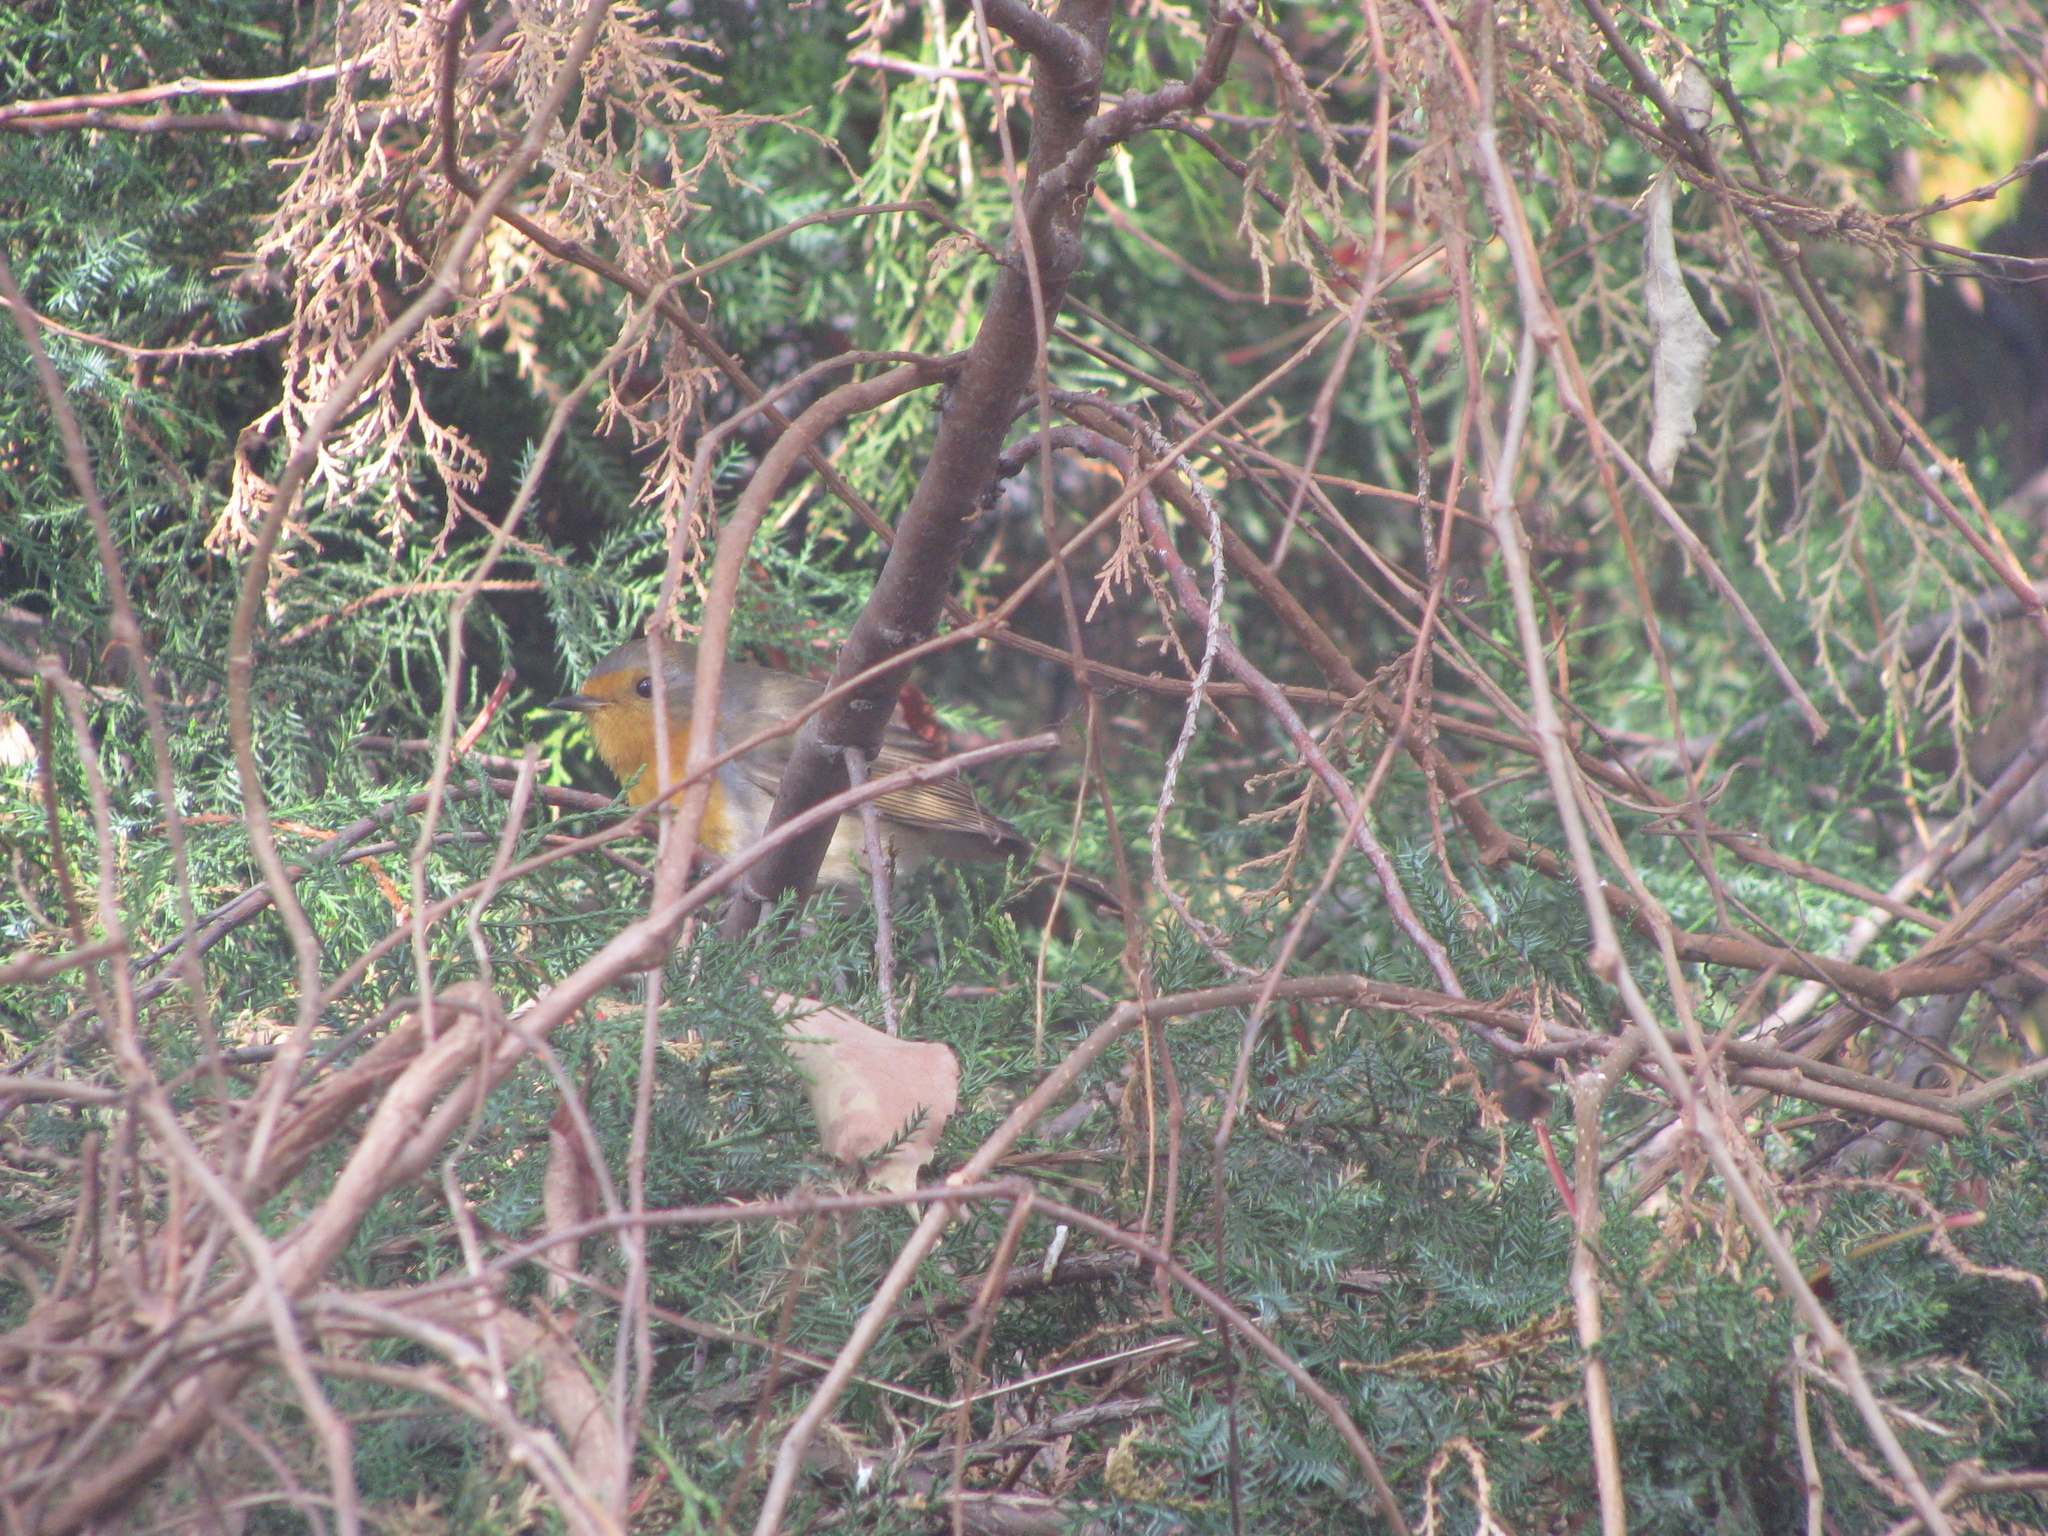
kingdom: Animalia
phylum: Chordata
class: Aves
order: Passeriformes
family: Muscicapidae
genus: Erithacus
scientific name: Erithacus rubecula
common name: European robin
